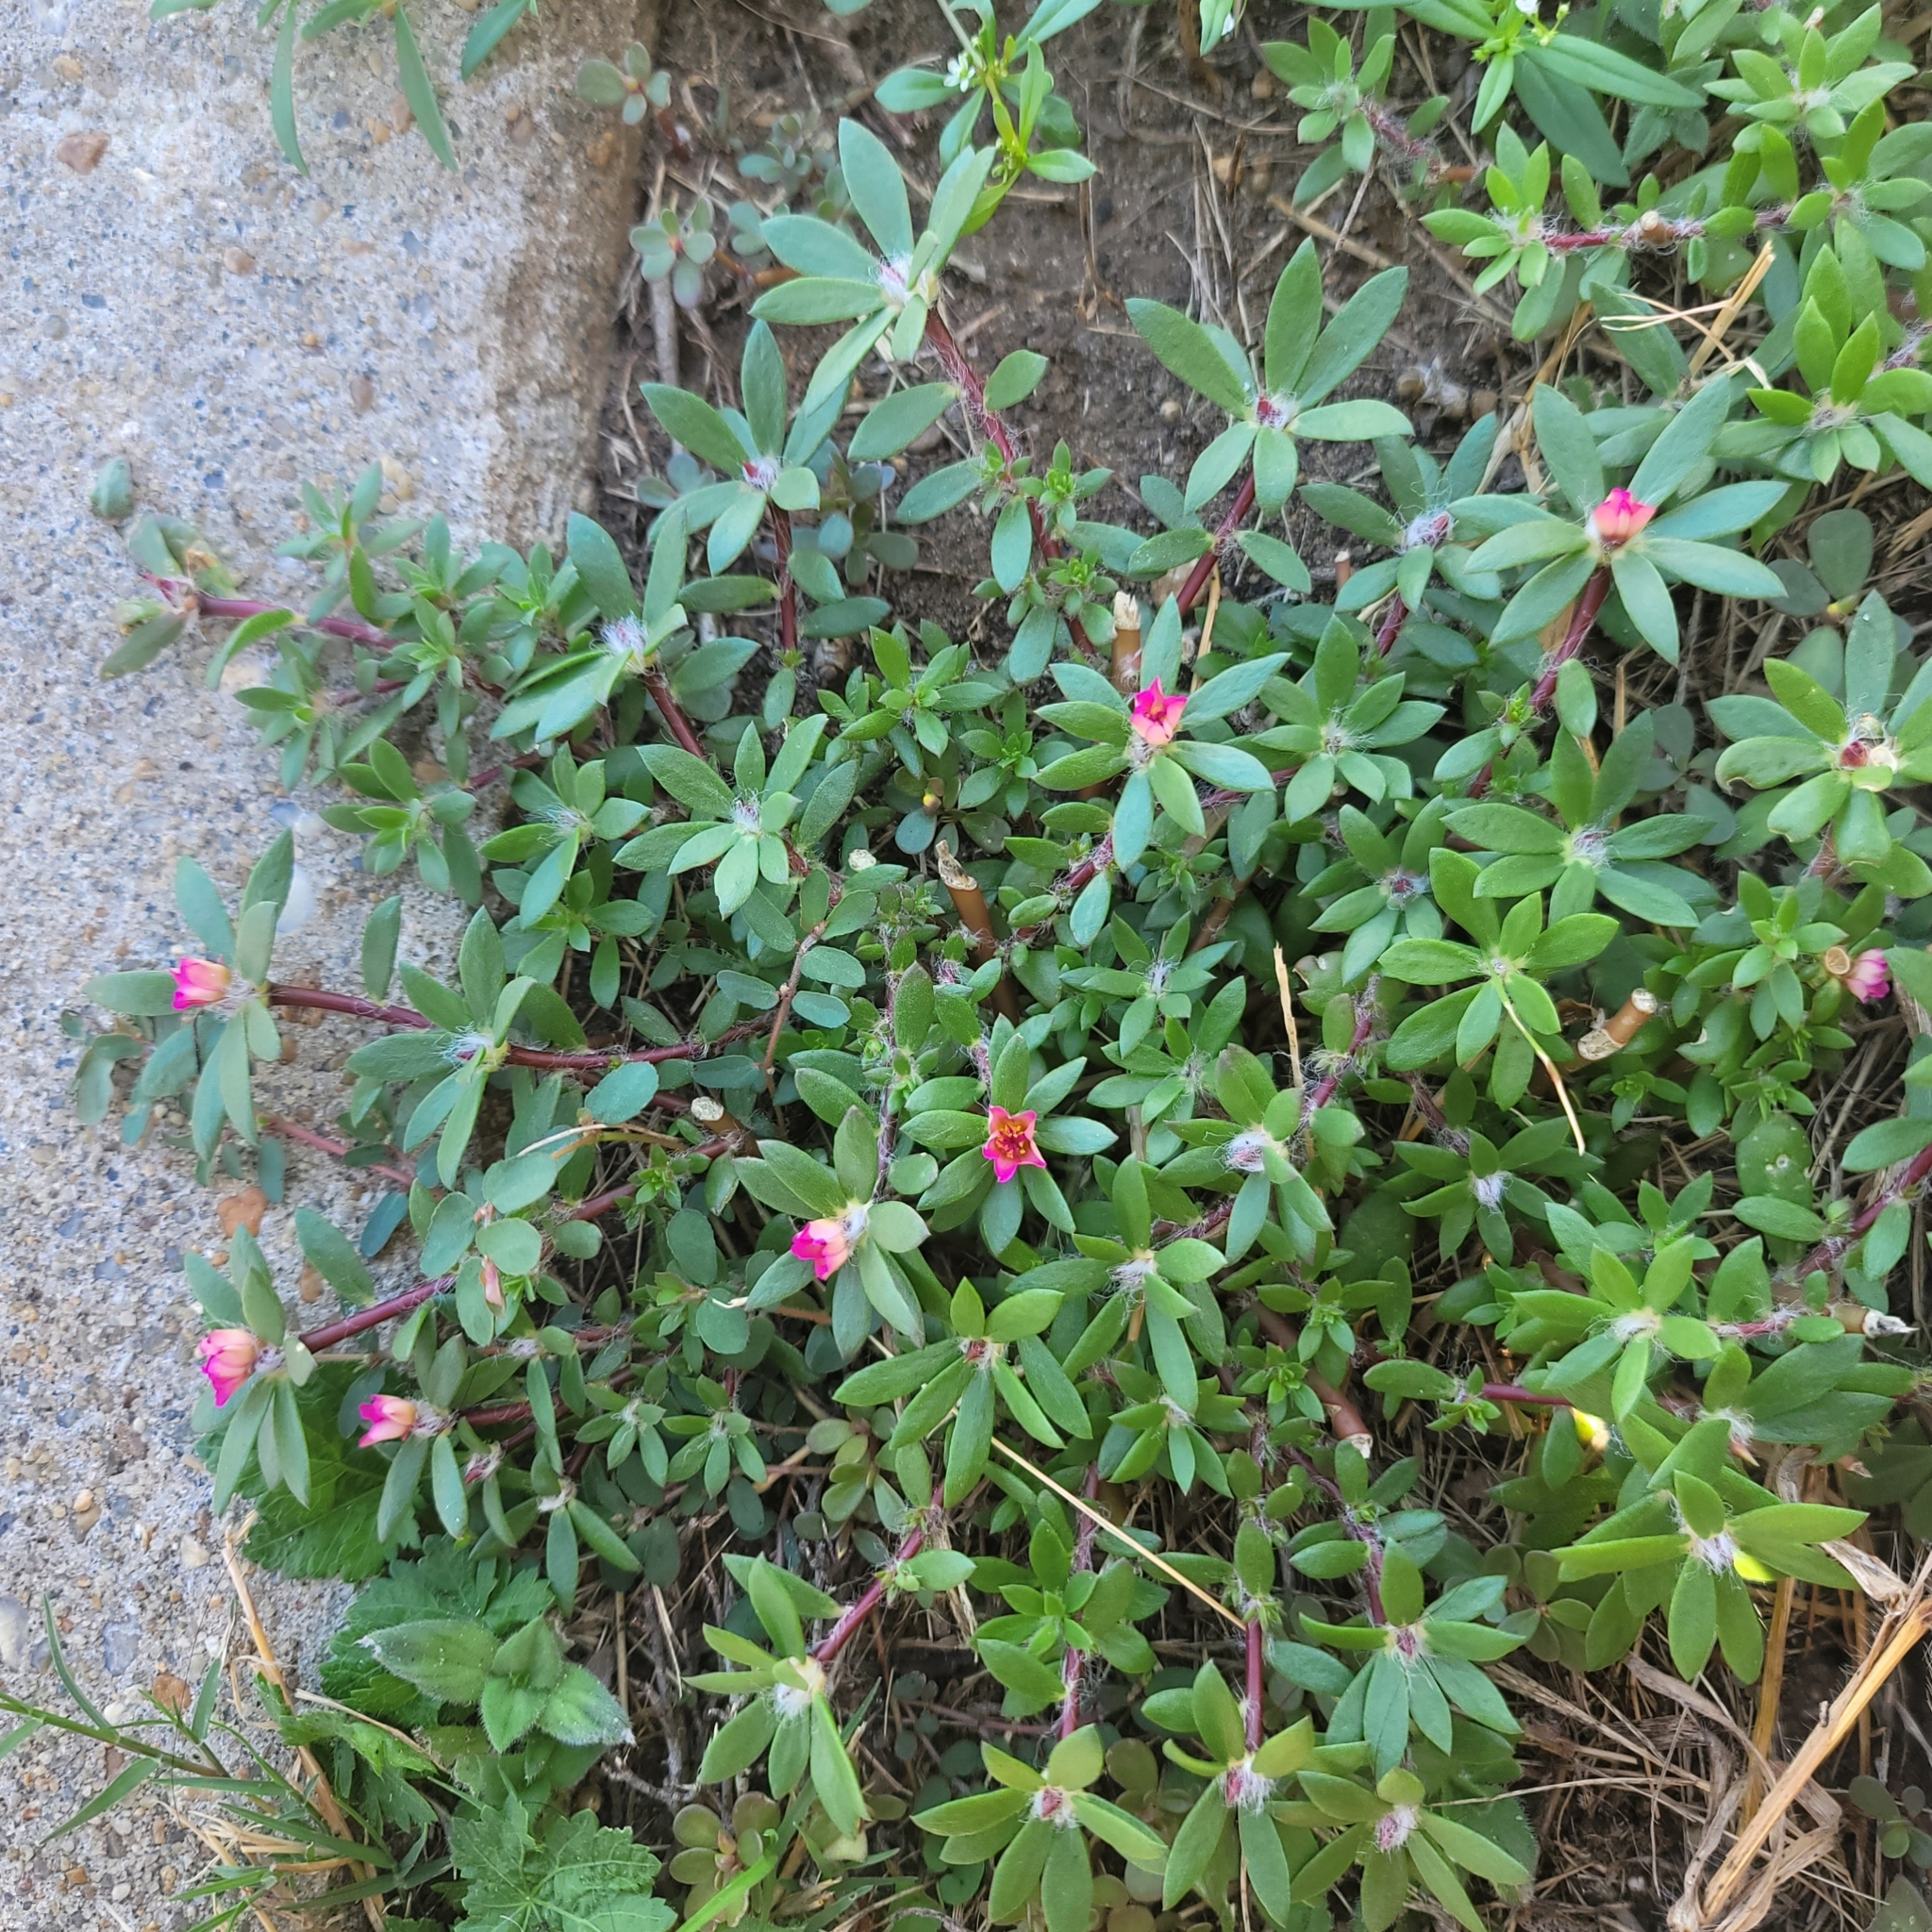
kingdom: Plantae
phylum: Tracheophyta
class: Magnoliopsida
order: Caryophyllales
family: Portulacaceae
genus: Portulaca
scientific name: Portulaca amilis
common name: Paraguayan purslane
